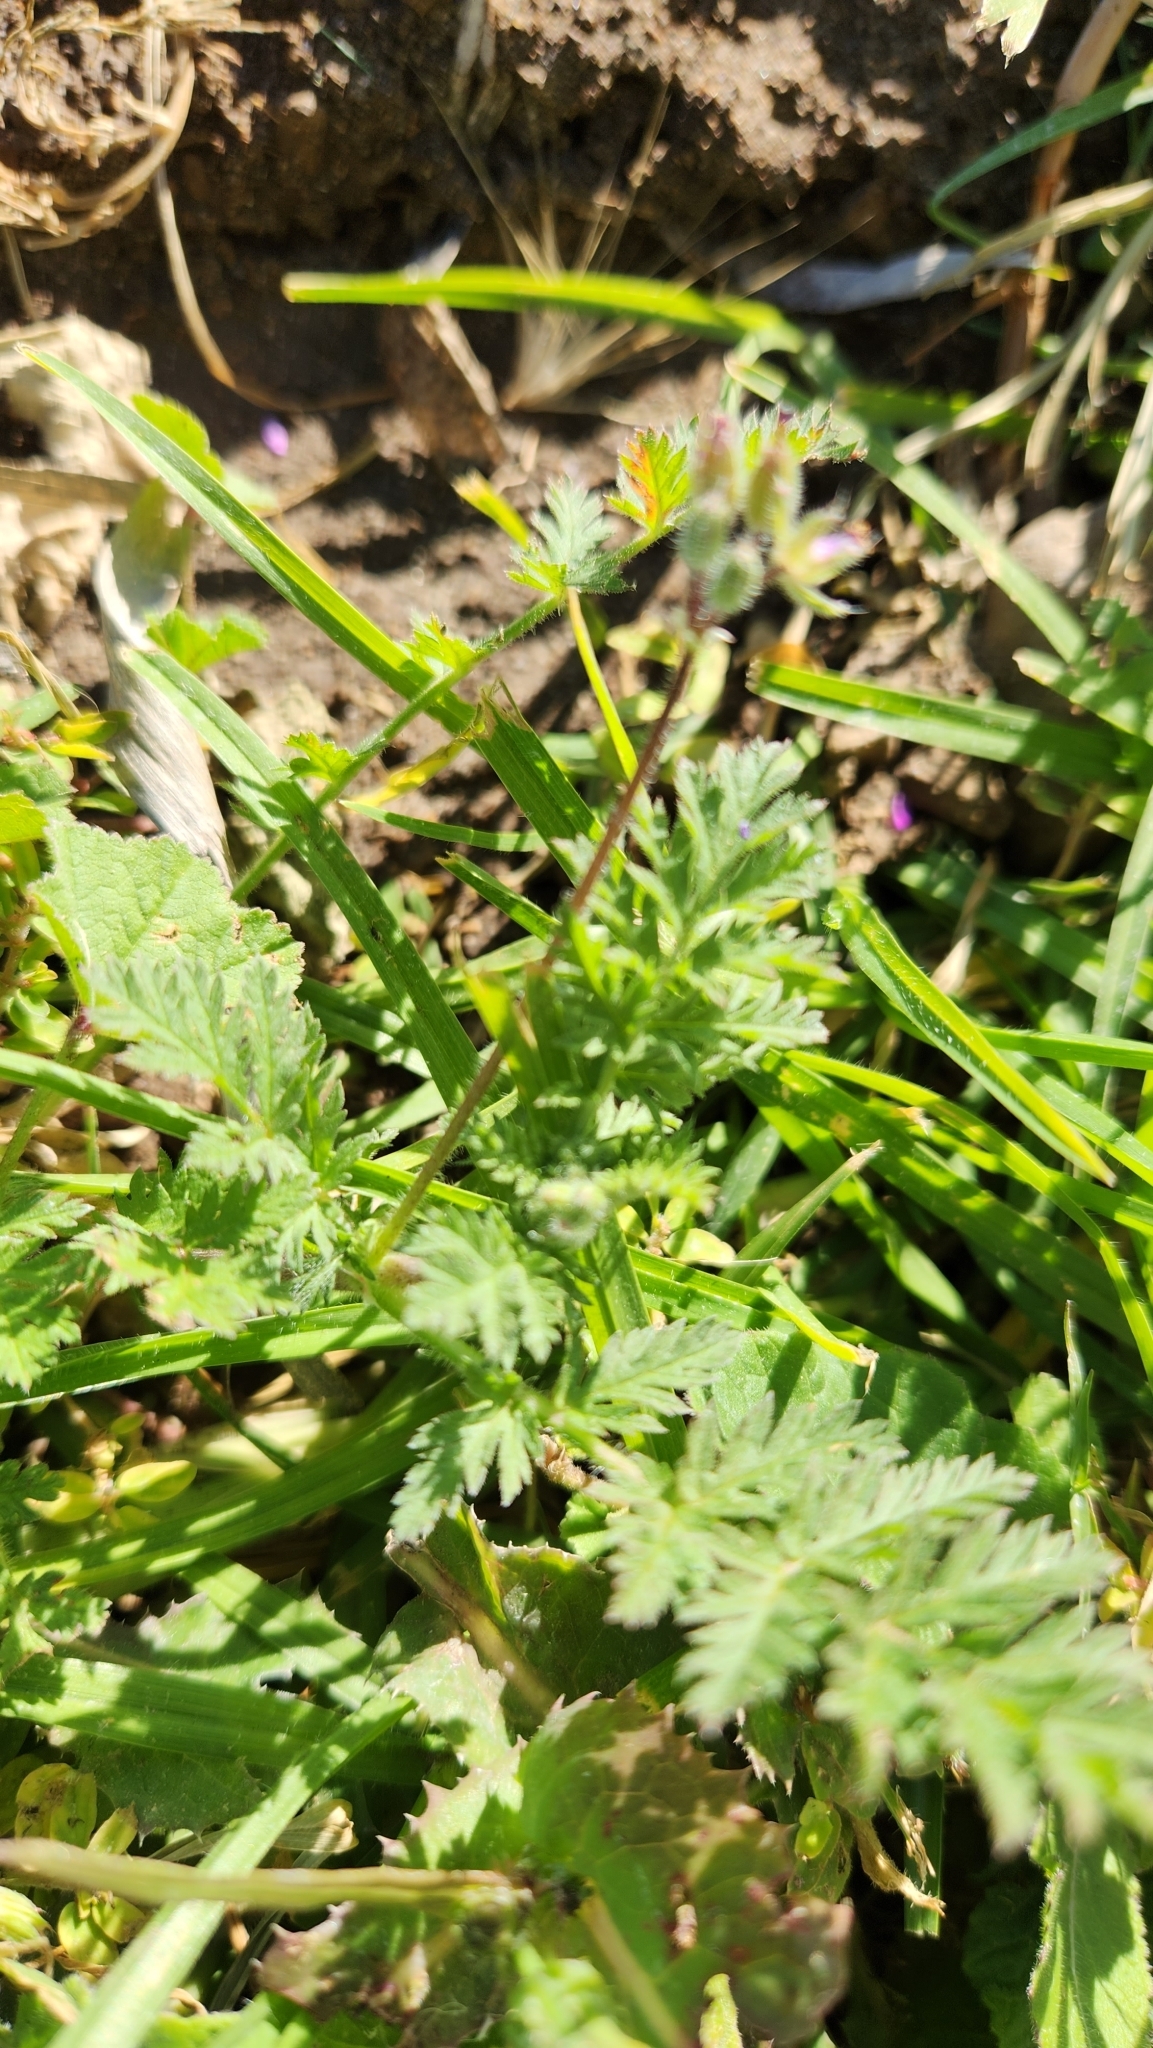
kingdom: Plantae
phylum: Tracheophyta
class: Magnoliopsida
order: Geraniales
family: Geraniaceae
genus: Erodium
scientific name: Erodium cicutarium
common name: Common stork's-bill
